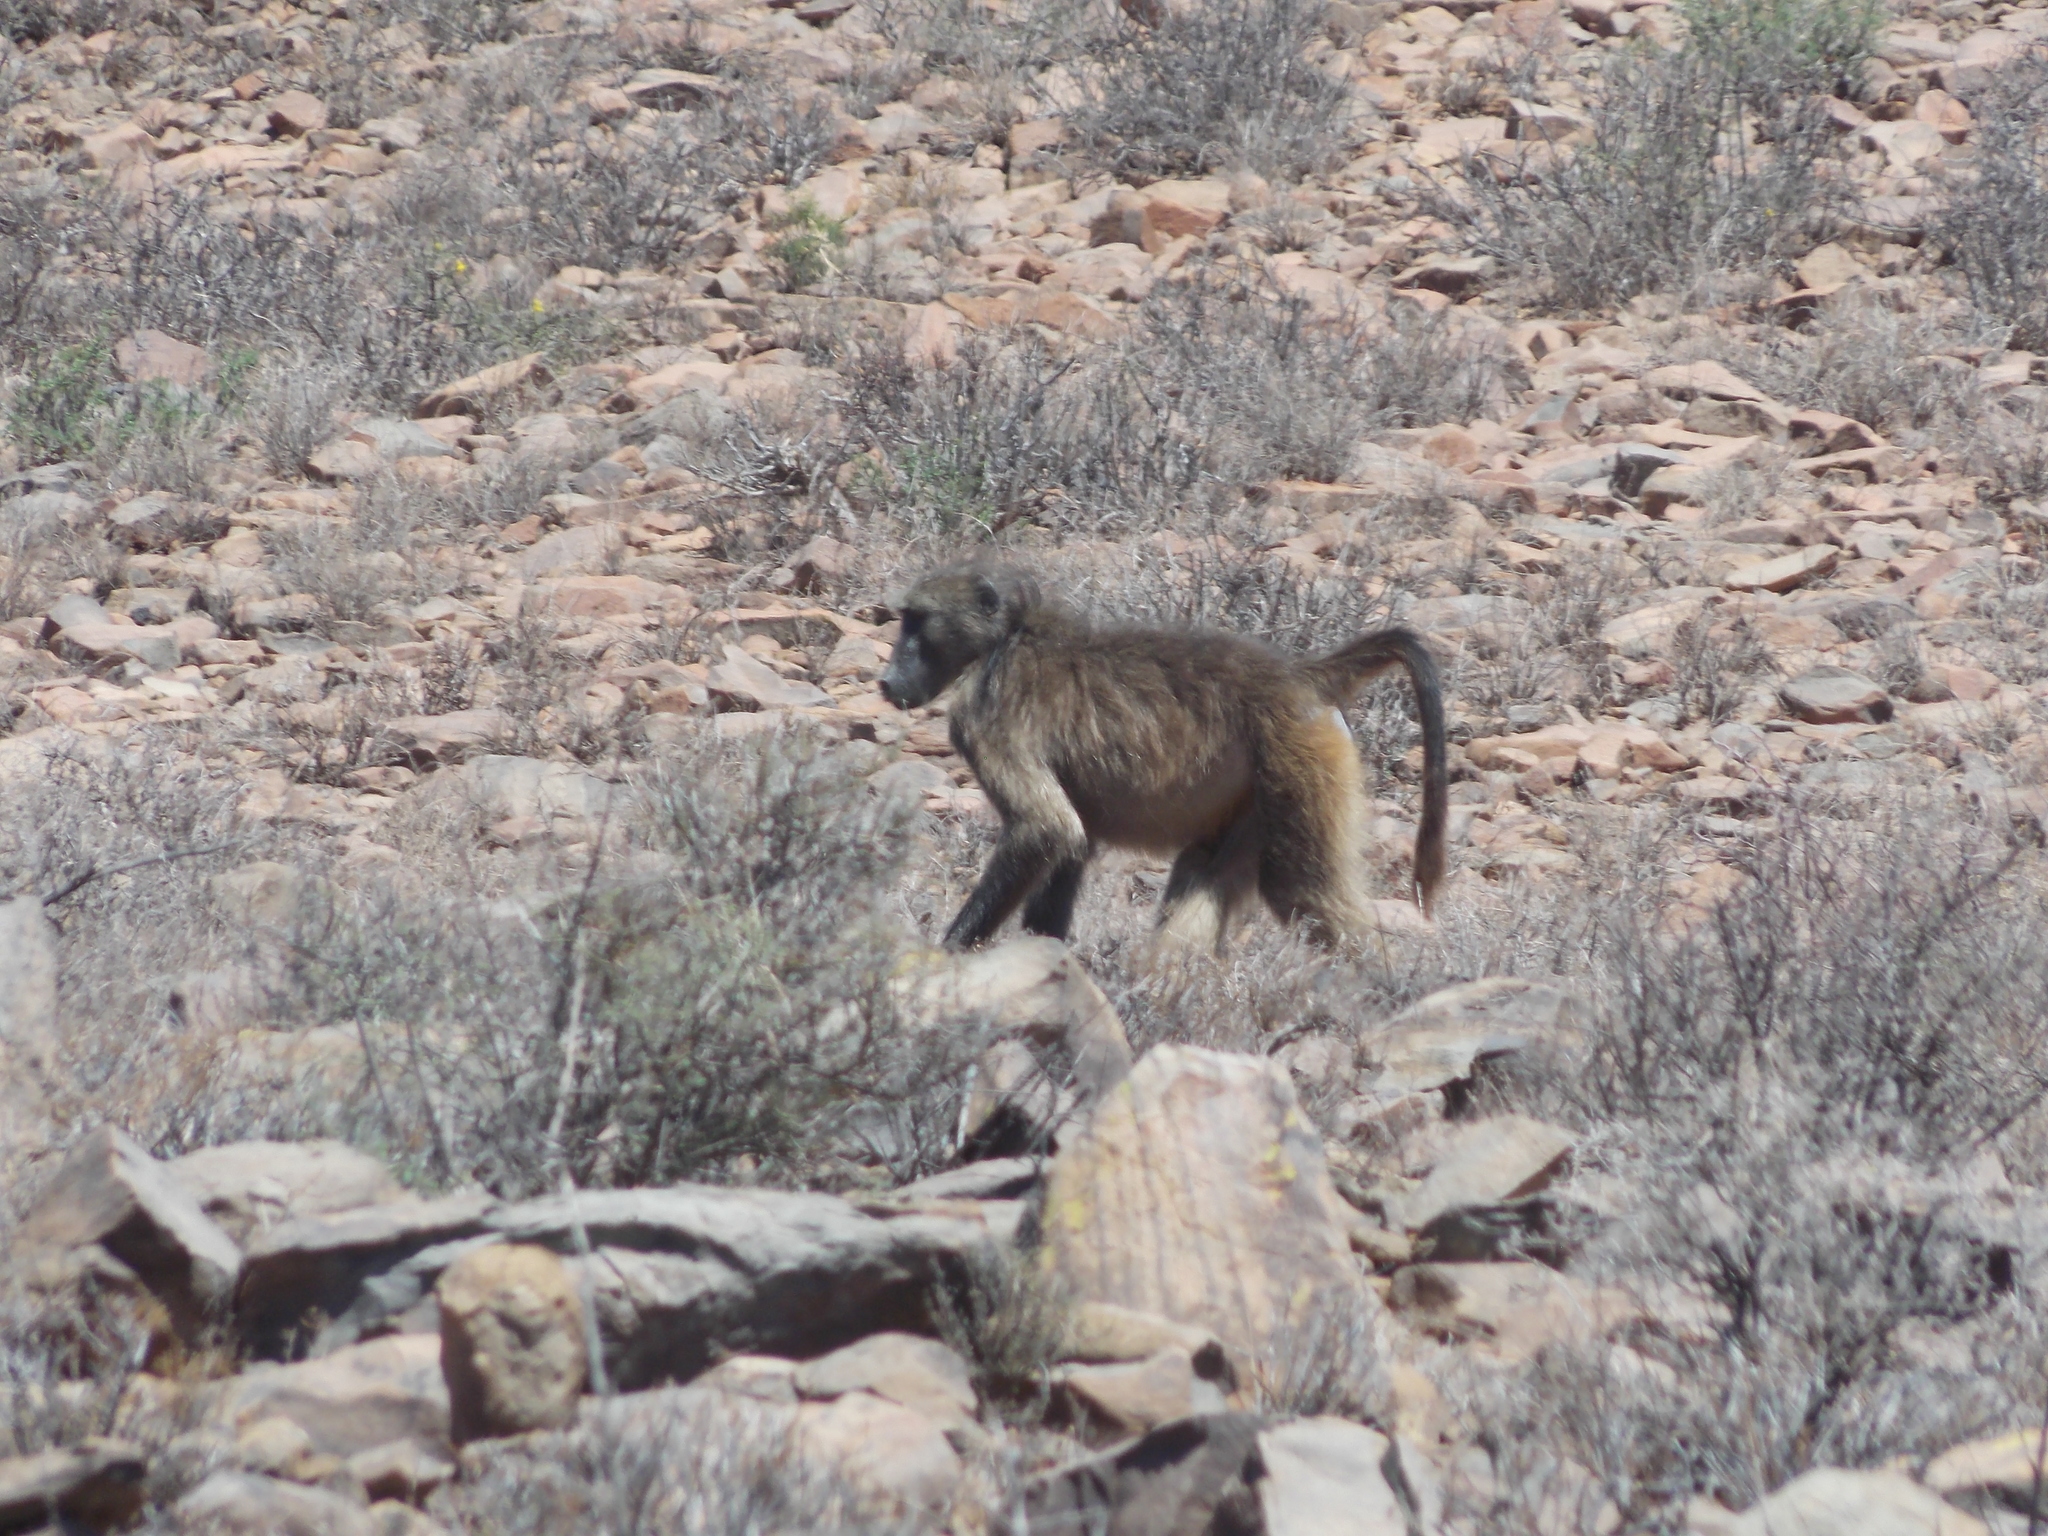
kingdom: Animalia
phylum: Chordata
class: Mammalia
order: Primates
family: Cercopithecidae
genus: Papio
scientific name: Papio ursinus
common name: Chacma baboon
